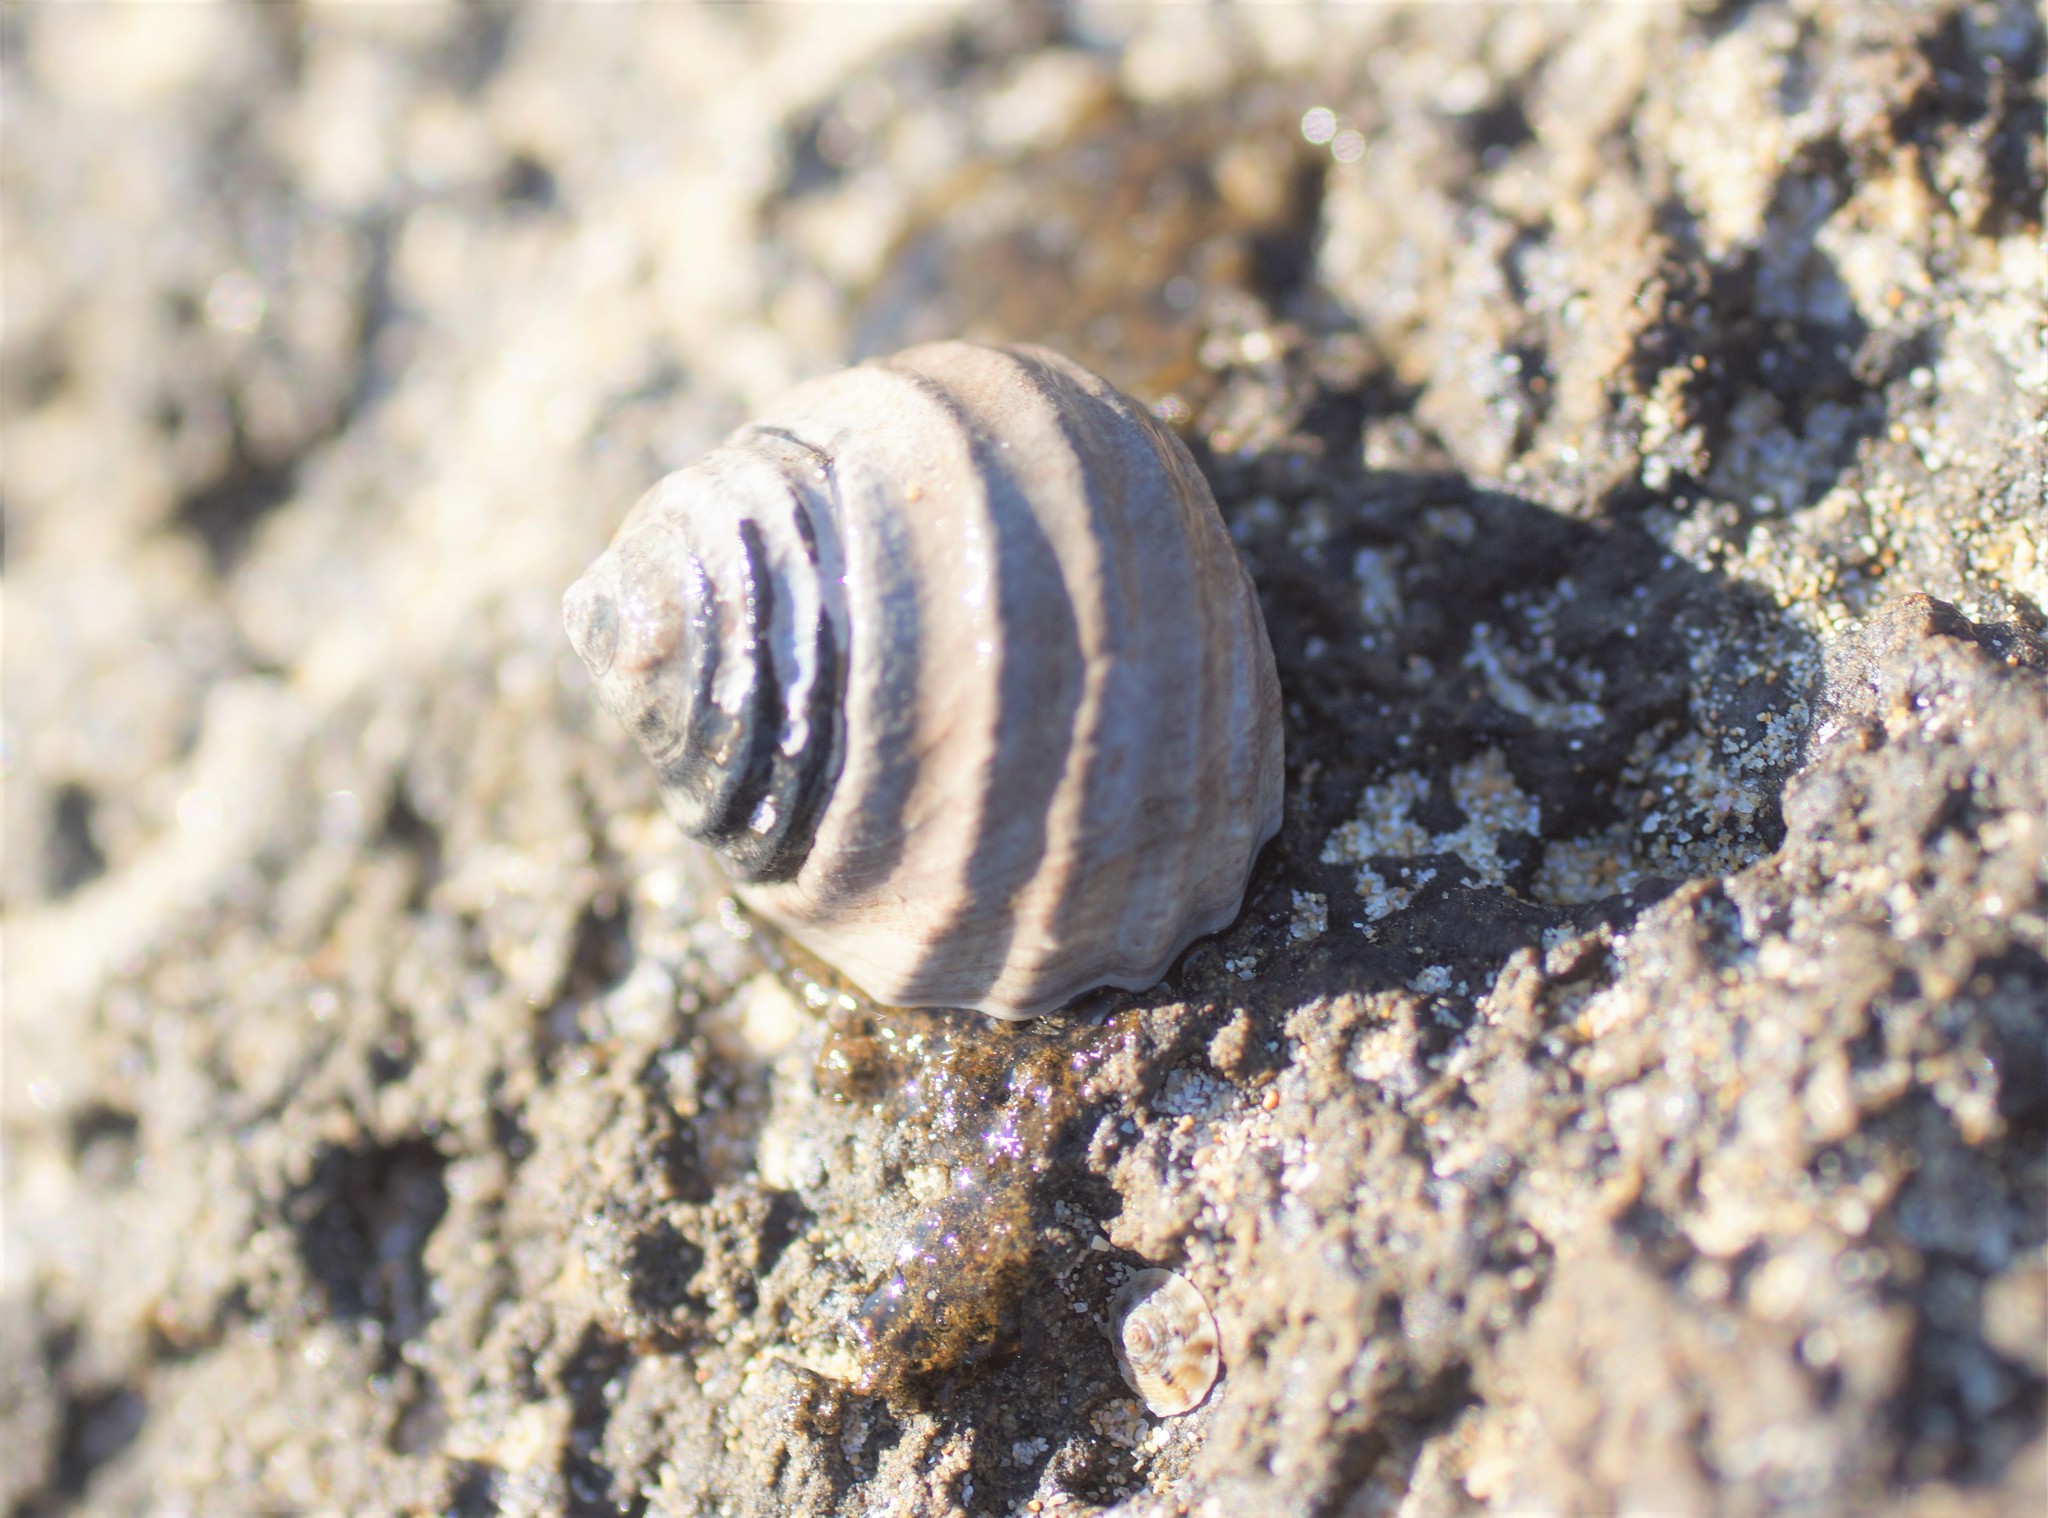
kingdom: Animalia
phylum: Mollusca
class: Gastropoda
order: Trochida
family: Trochidae
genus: Austrocochlea
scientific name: Austrocochlea constricta
